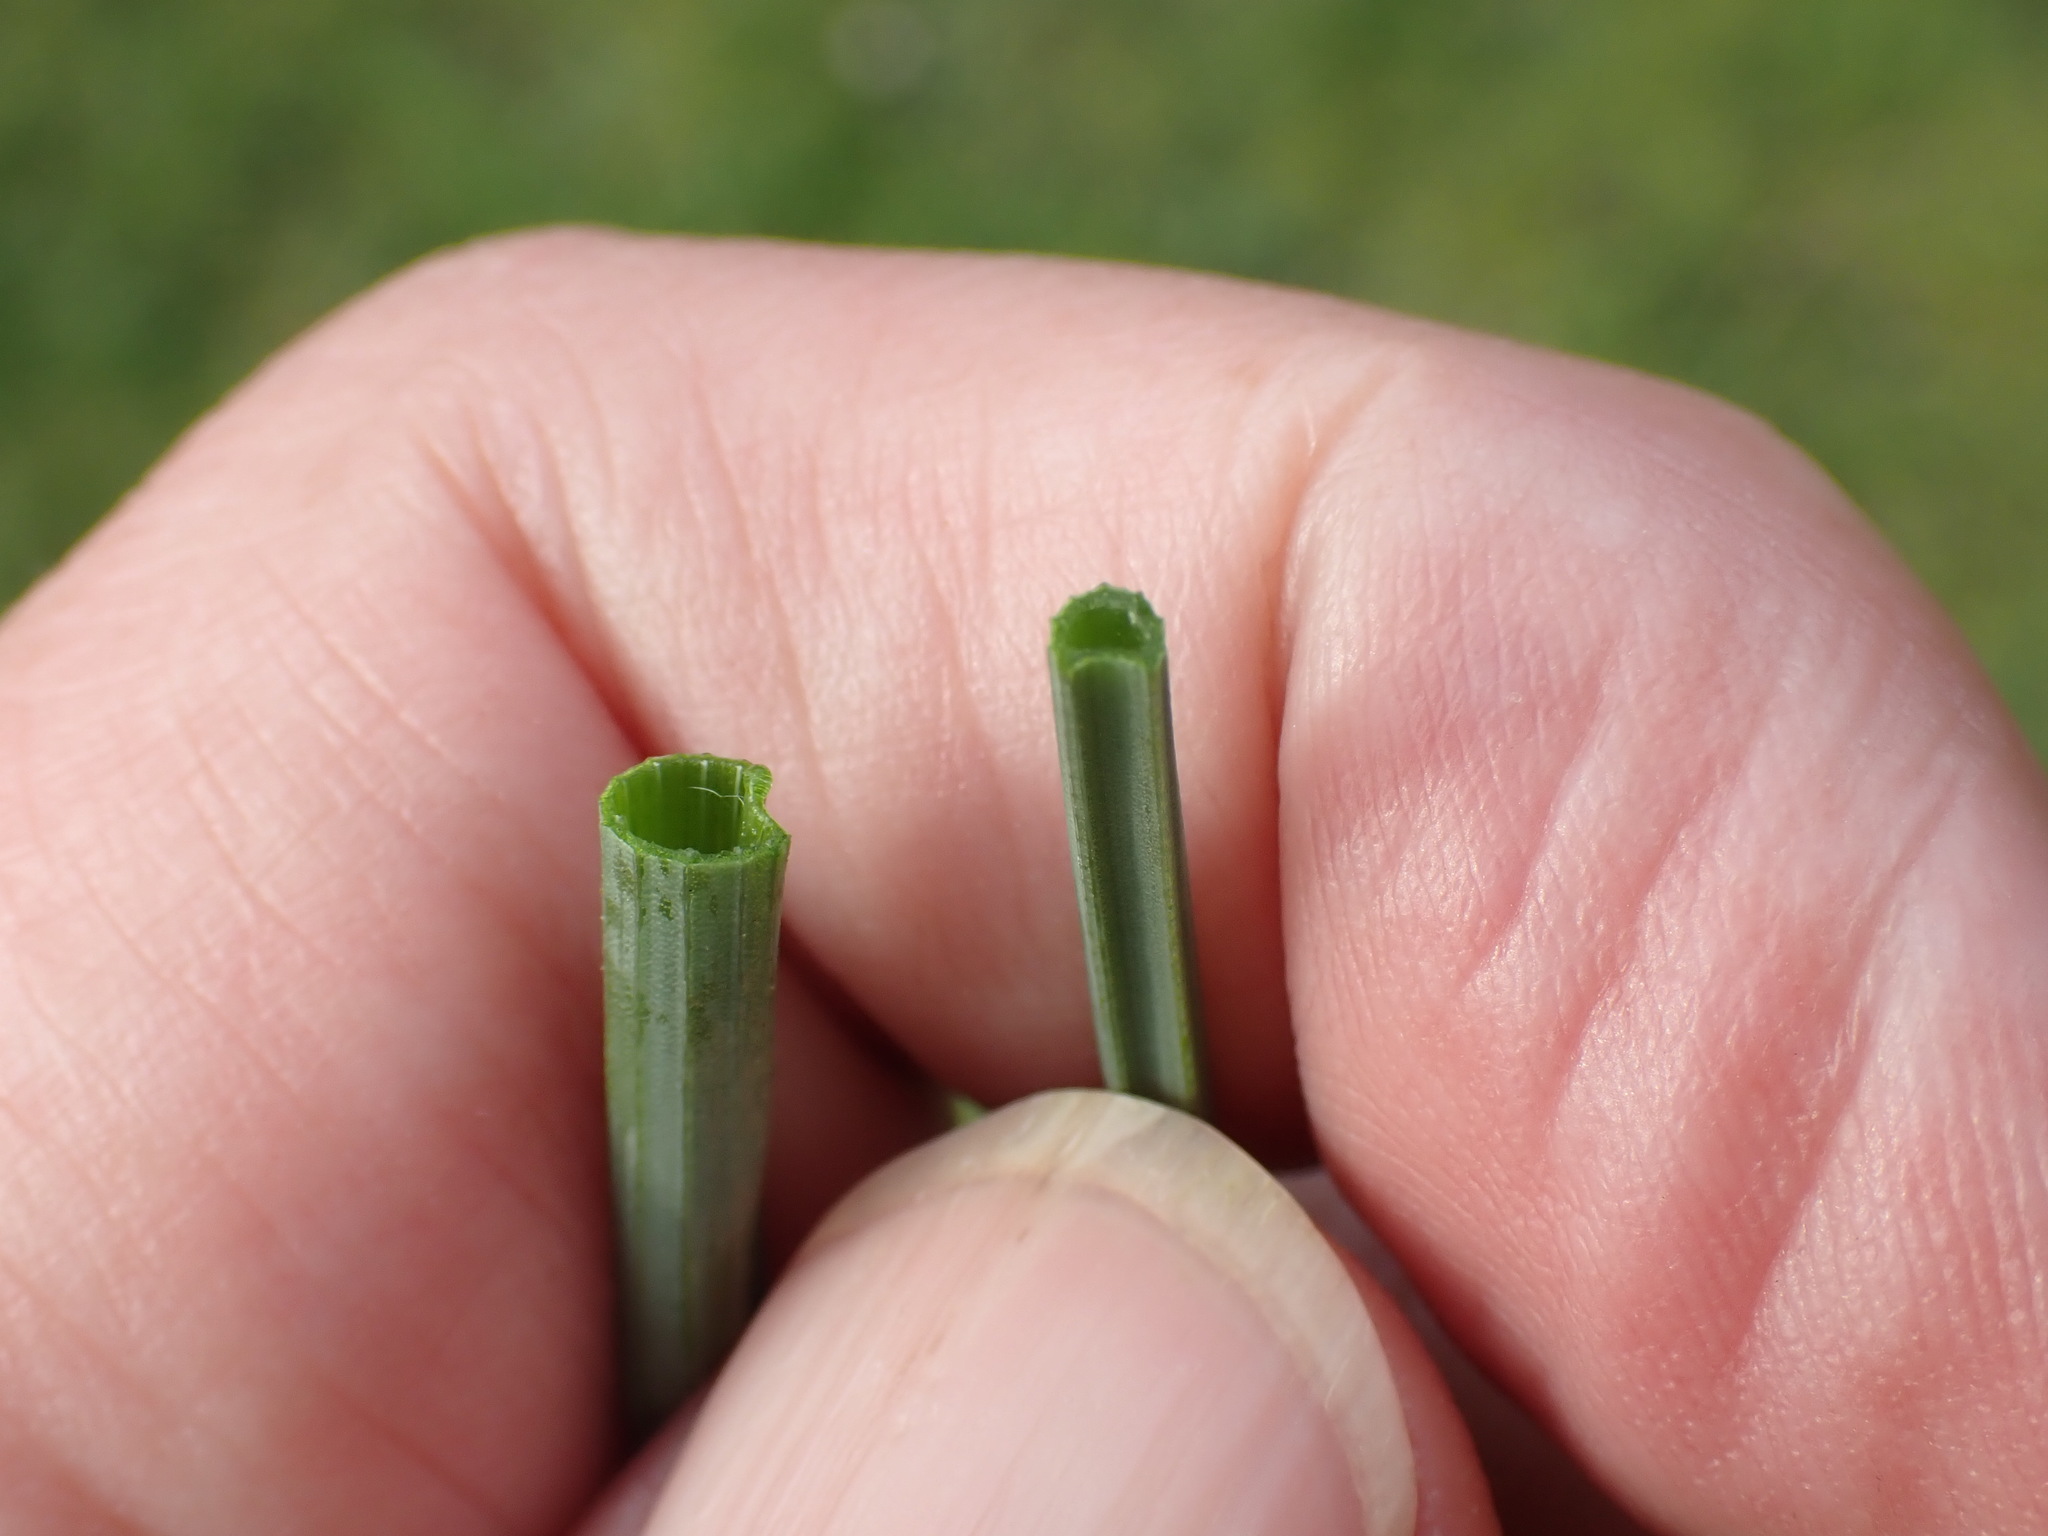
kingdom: Plantae
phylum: Tracheophyta
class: Liliopsida
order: Asparagales
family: Amaryllidaceae
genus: Allium
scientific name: Allium vineale
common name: Crow garlic
